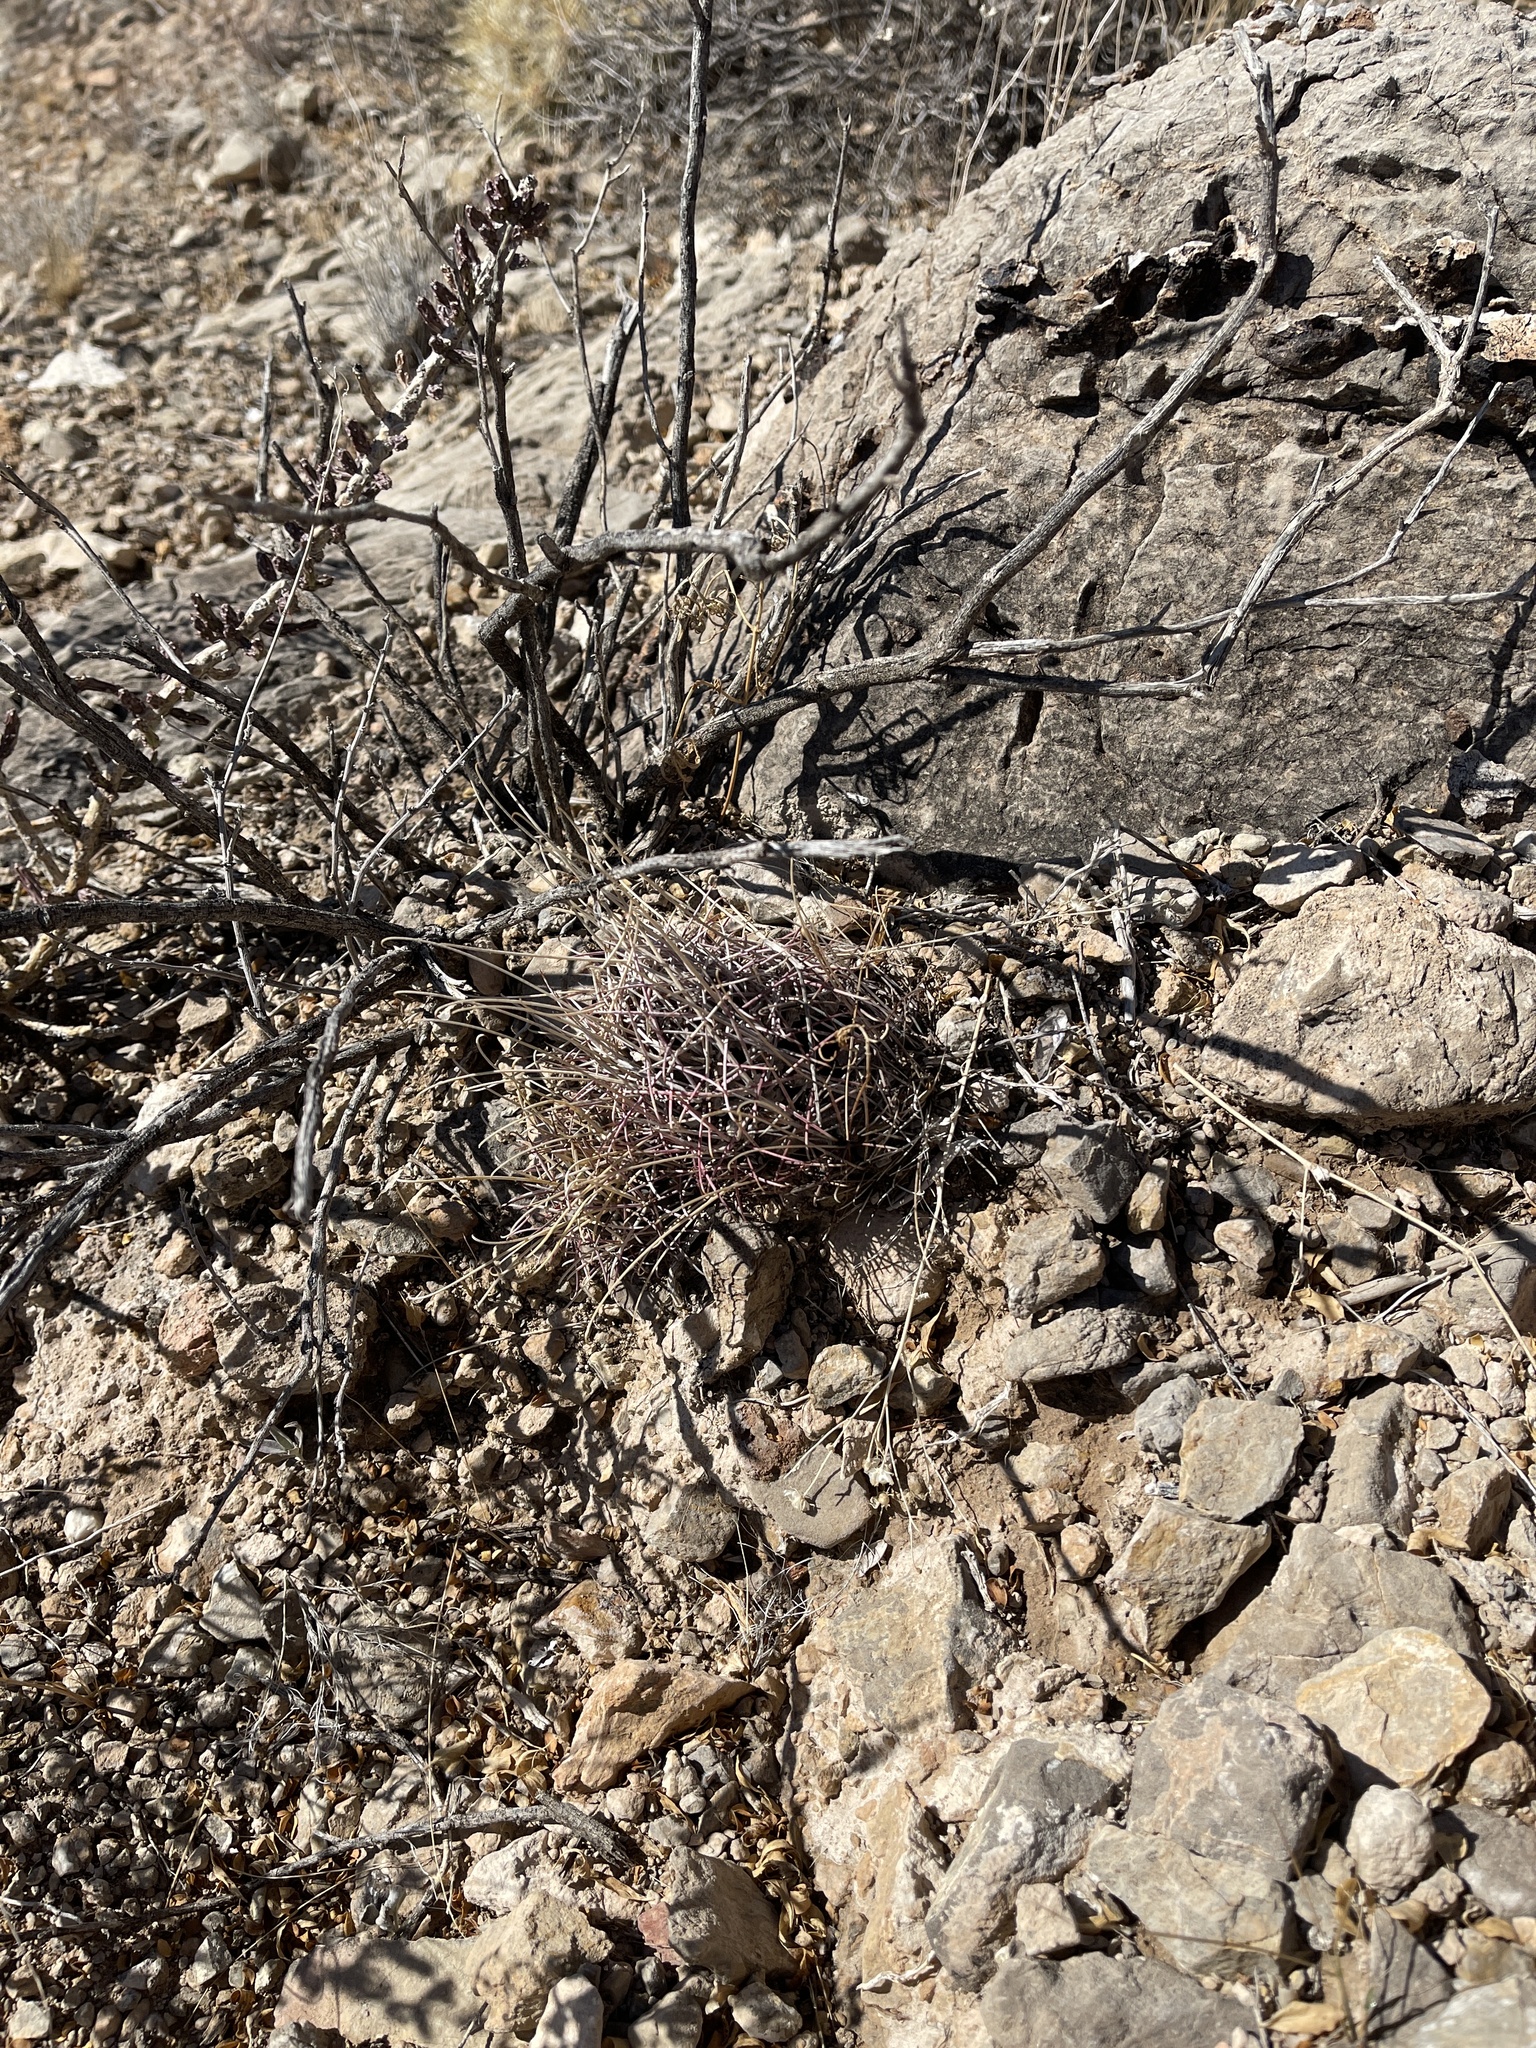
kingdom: Plantae
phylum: Tracheophyta
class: Magnoliopsida
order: Caryophyllales
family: Cactaceae
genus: Ferocactus
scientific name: Ferocactus uncinatus
